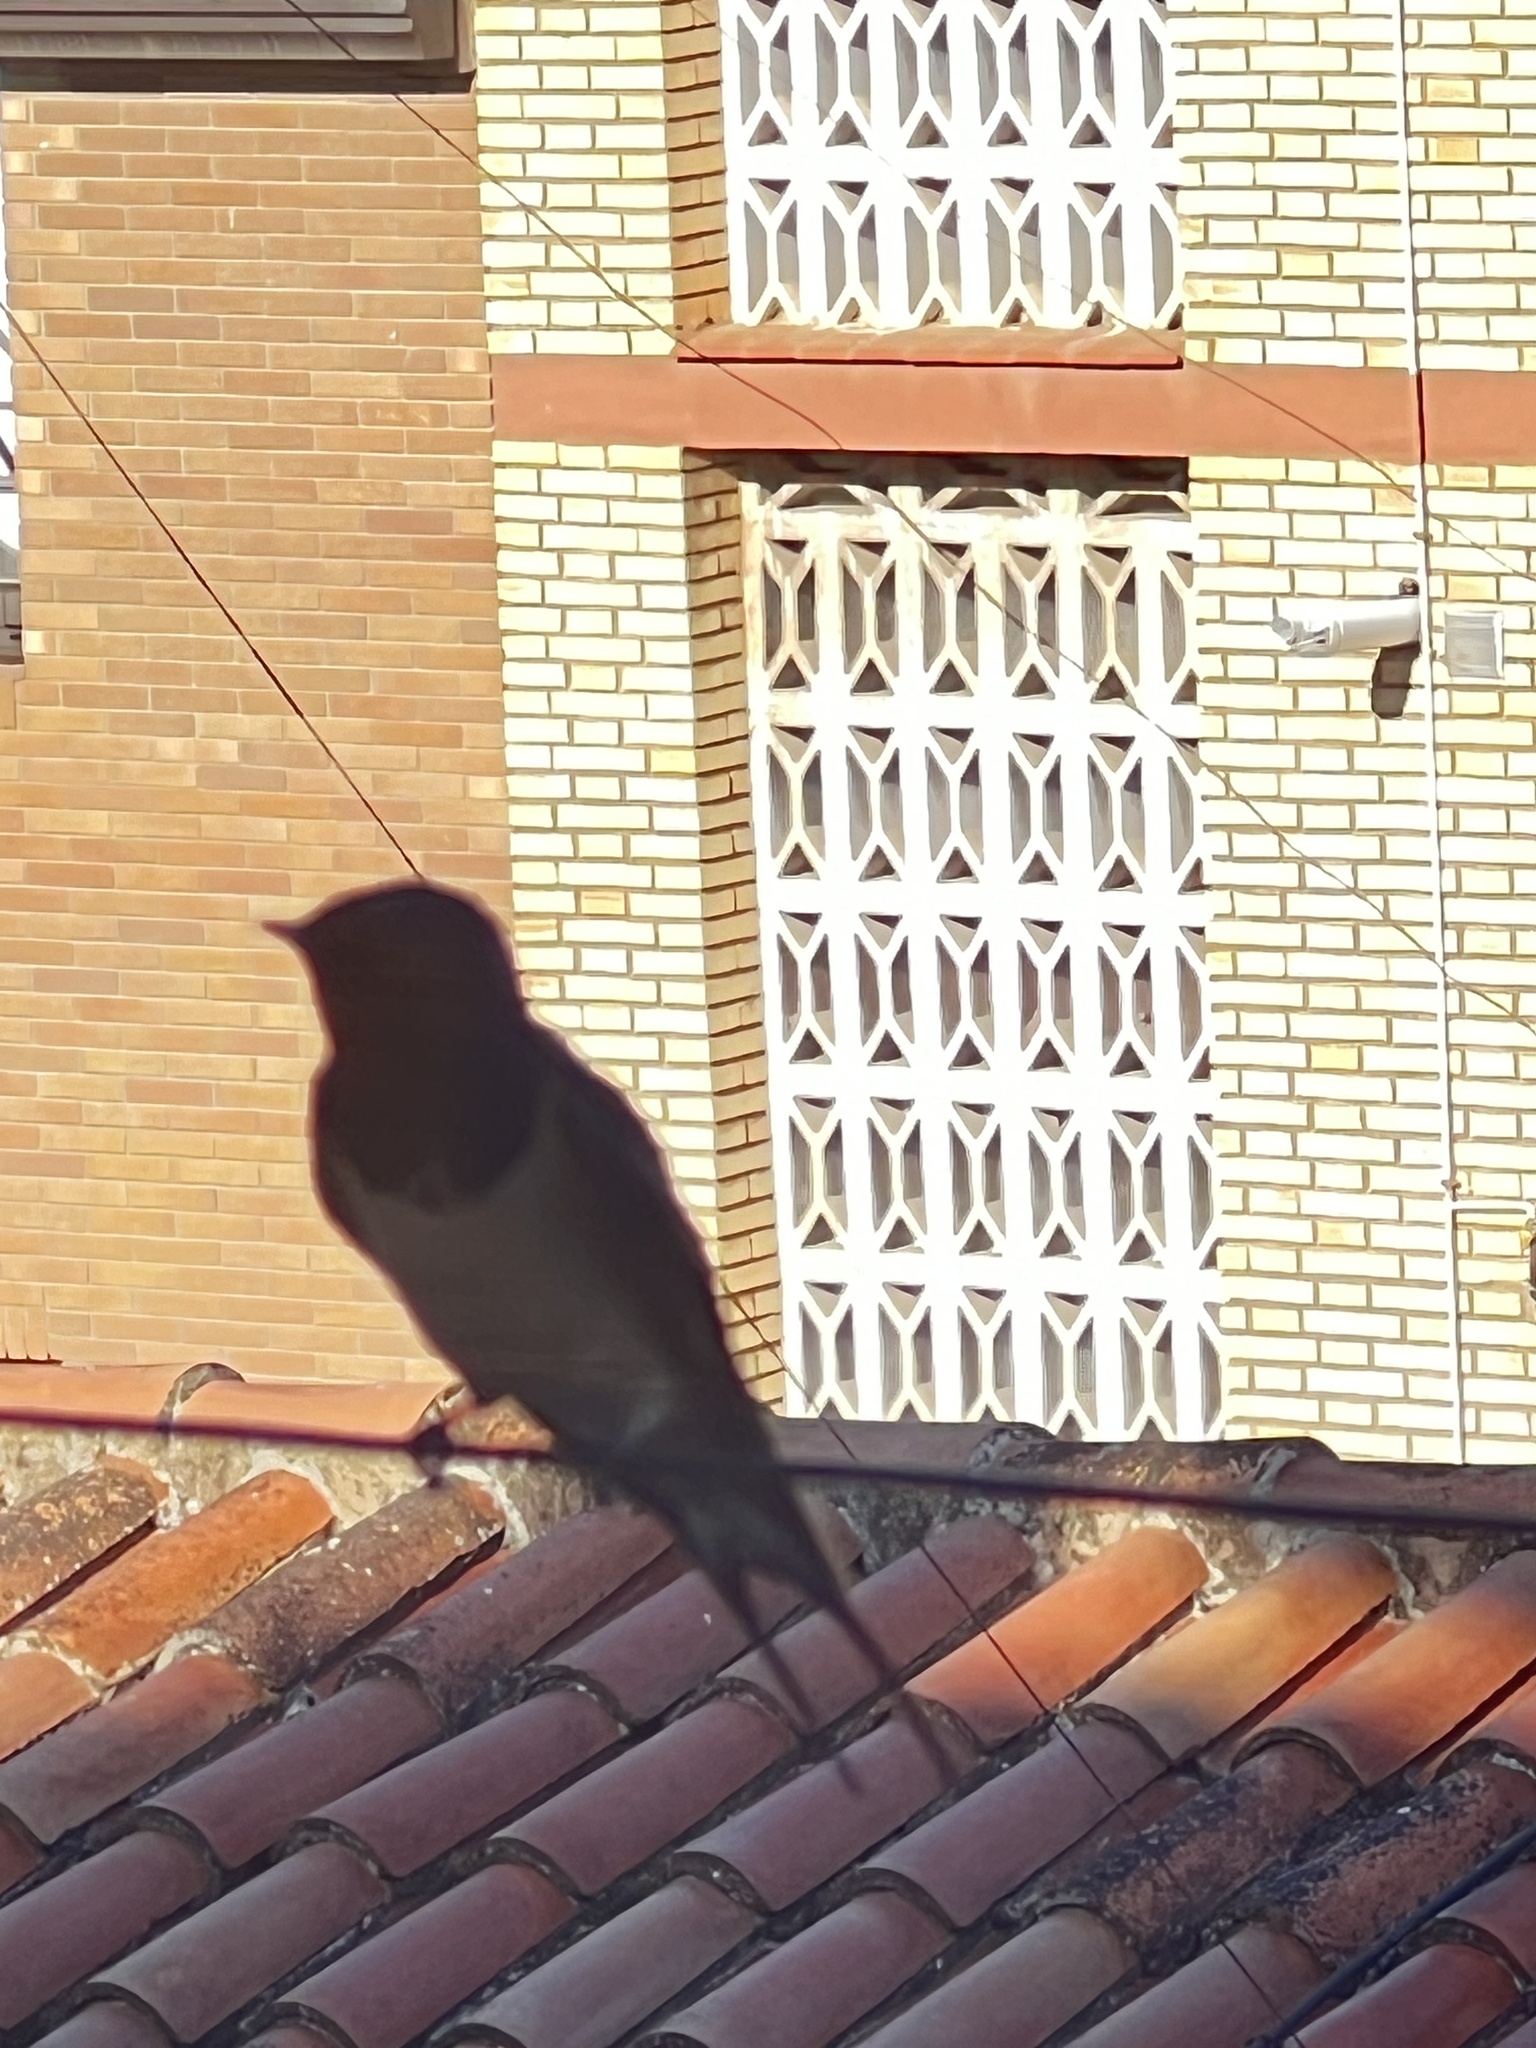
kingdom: Animalia
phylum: Chordata
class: Aves
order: Passeriformes
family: Hirundinidae
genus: Hirundo
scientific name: Hirundo rustica
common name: Barn swallow
